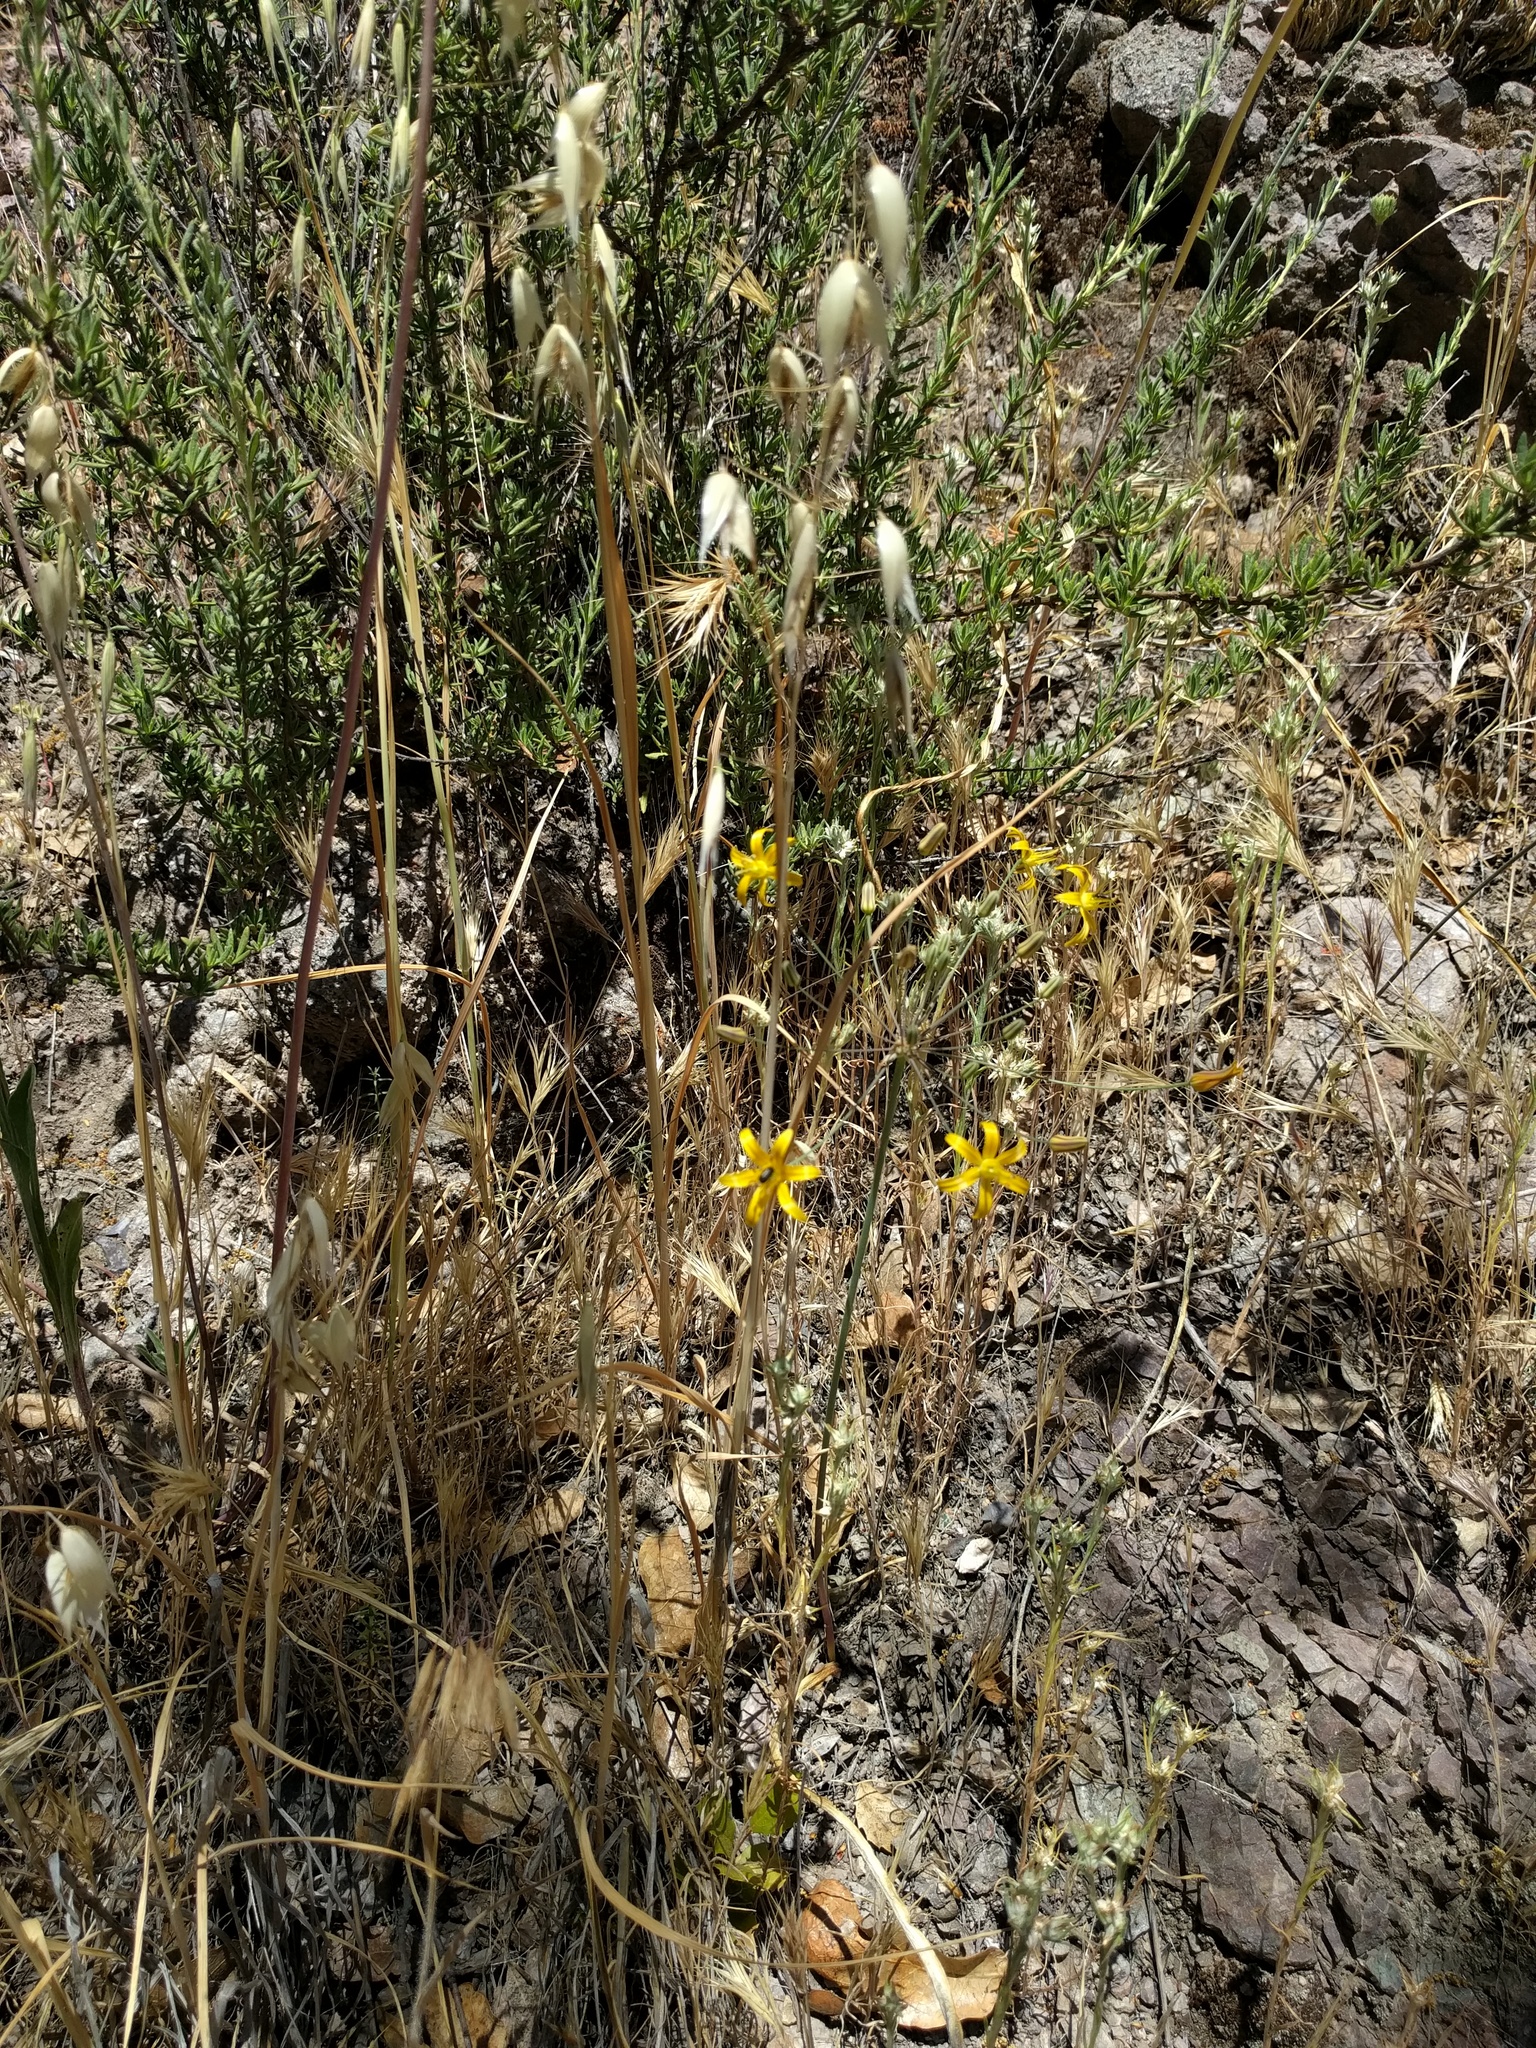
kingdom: Plantae
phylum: Tracheophyta
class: Liliopsida
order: Asparagales
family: Asparagaceae
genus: Bloomeria
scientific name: Bloomeria crocea
